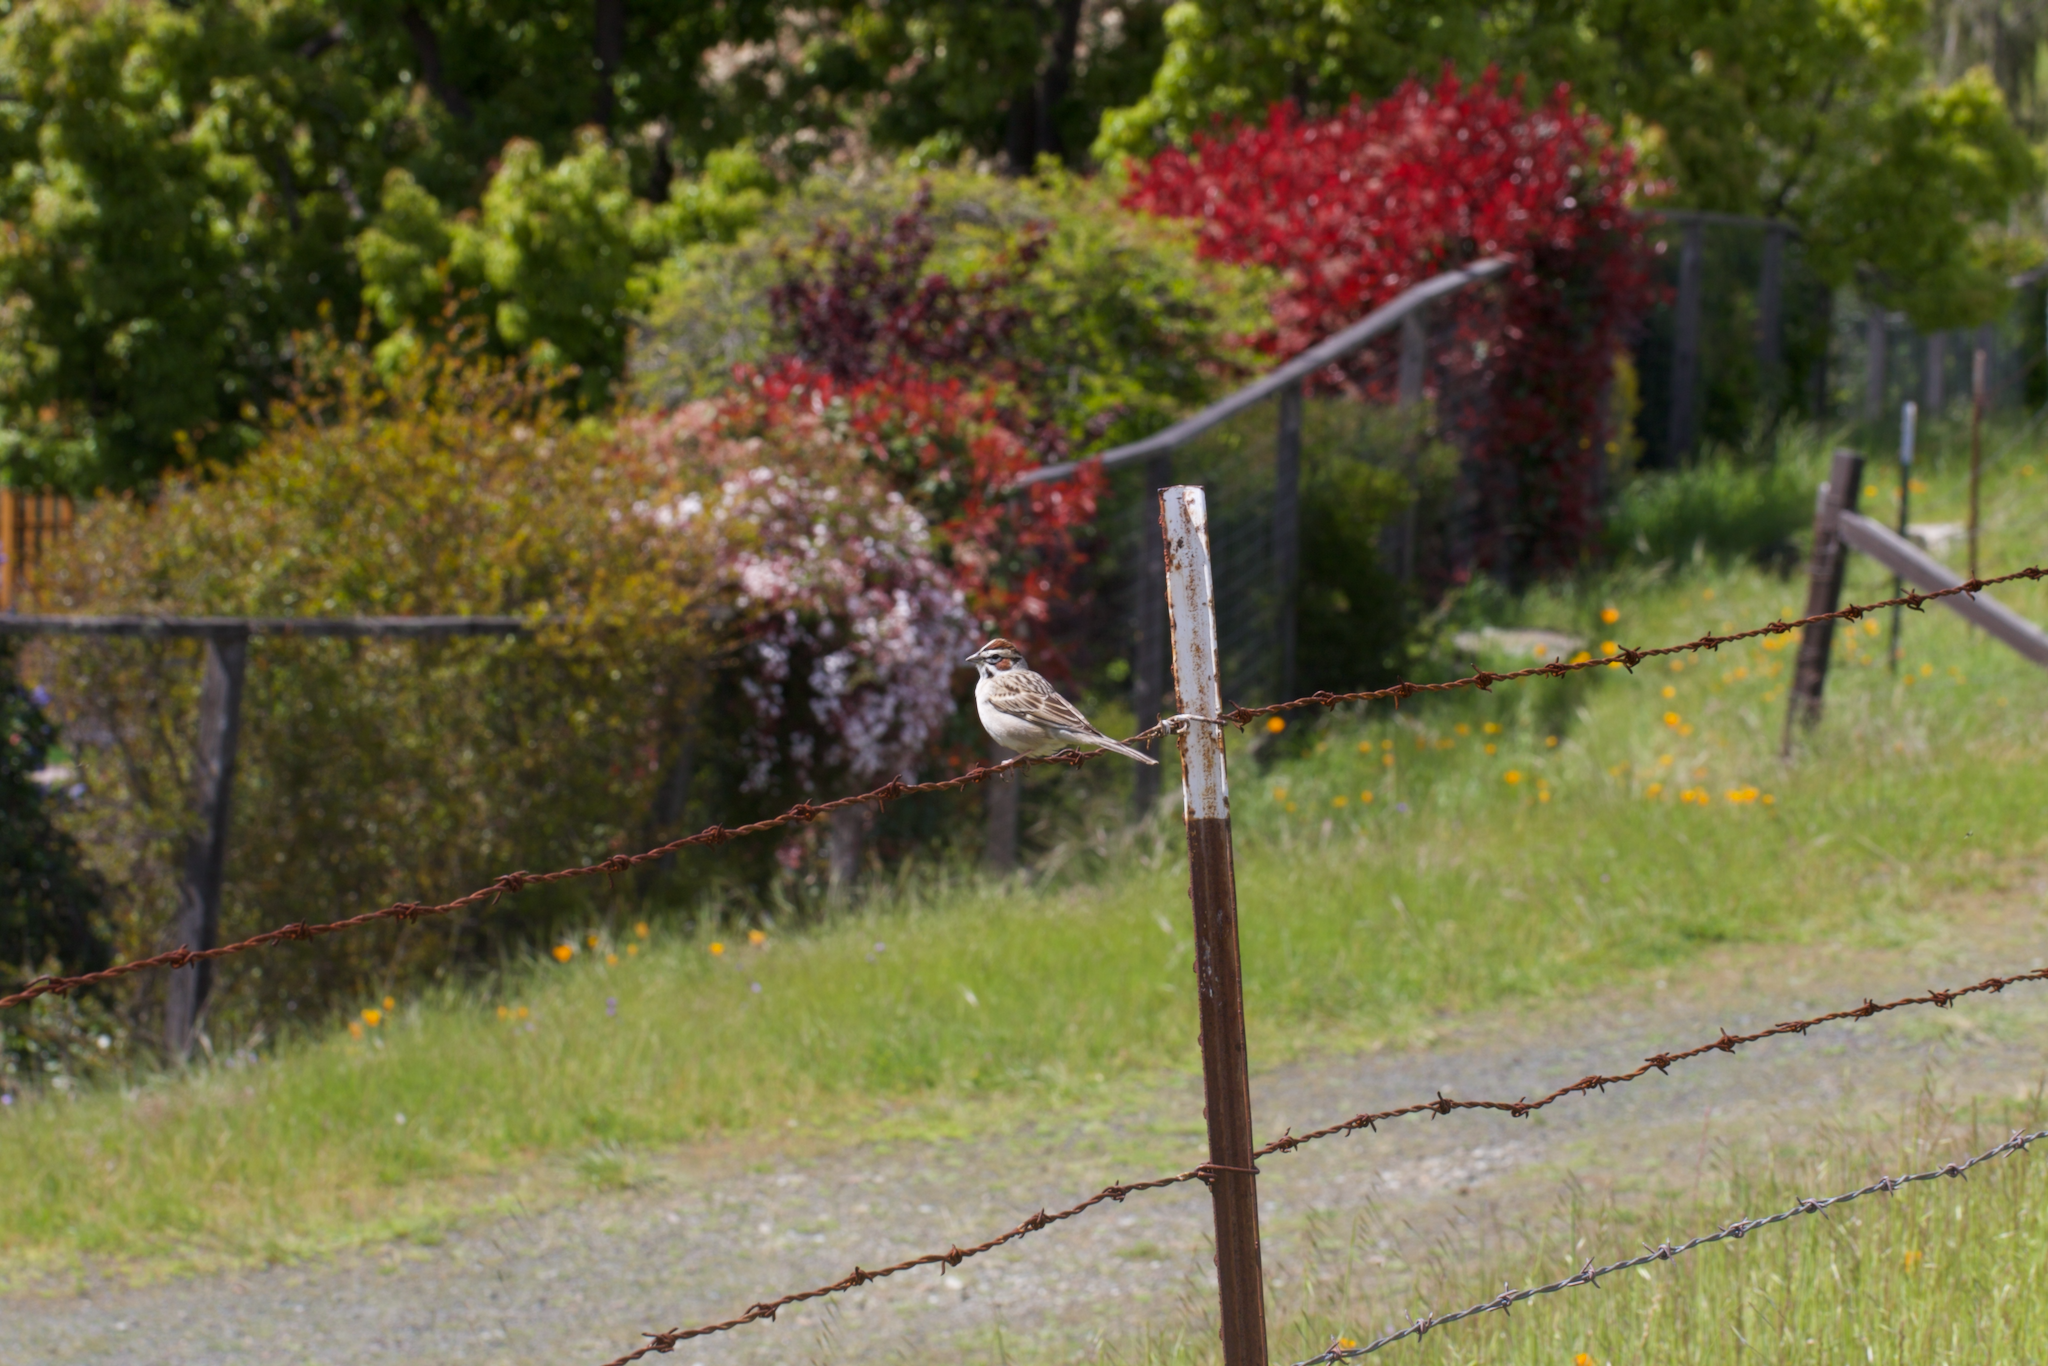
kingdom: Animalia
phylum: Chordata
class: Aves
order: Passeriformes
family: Passerellidae
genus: Chondestes
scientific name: Chondestes grammacus
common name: Lark sparrow
